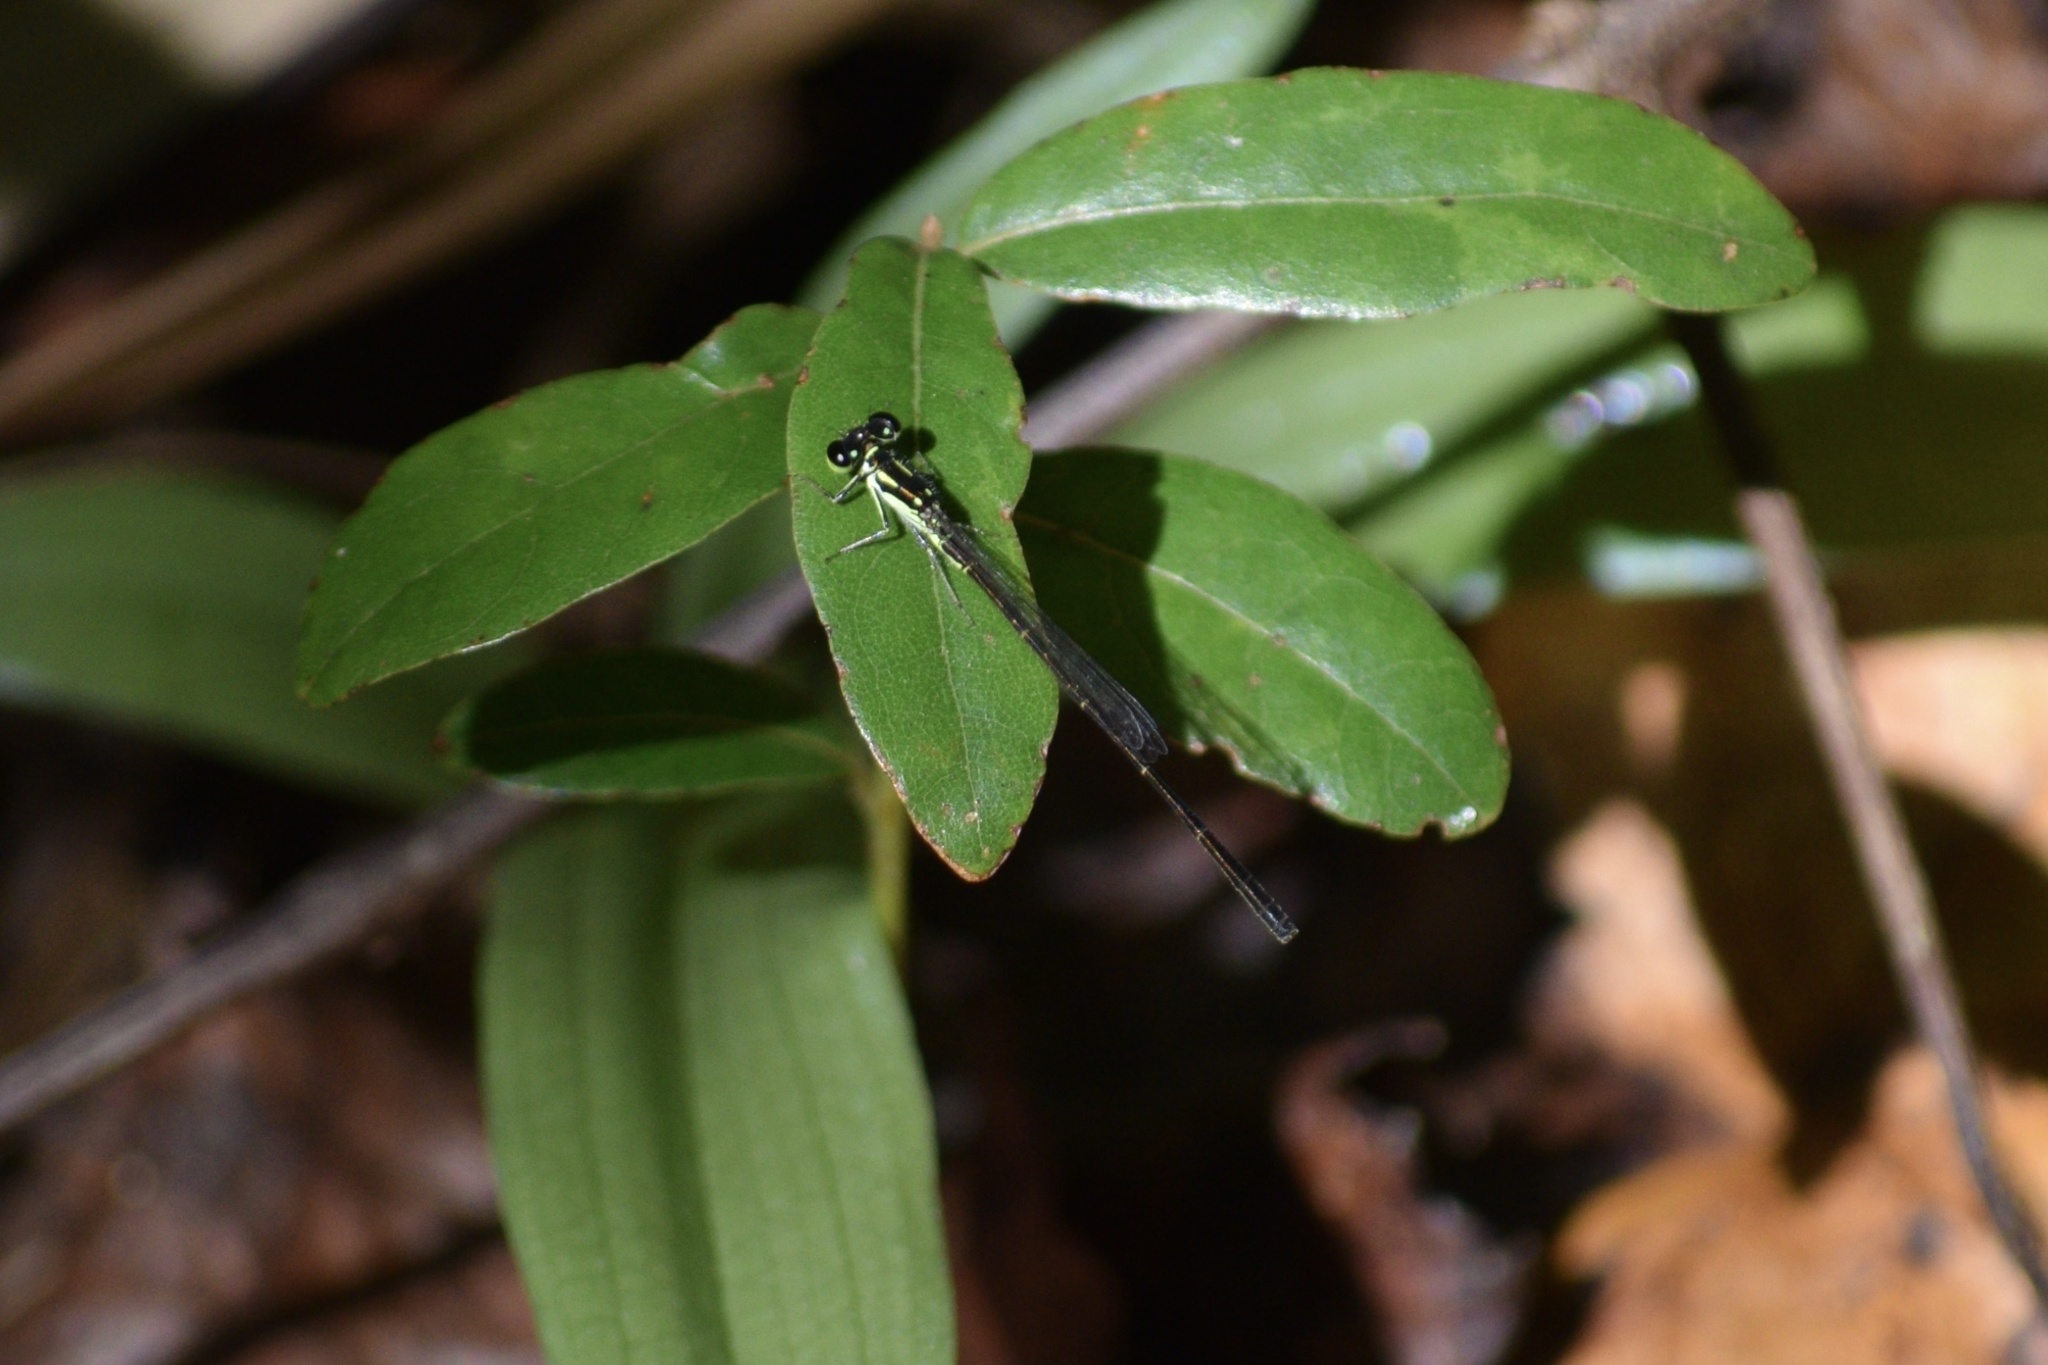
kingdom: Animalia
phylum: Arthropoda
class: Insecta
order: Odonata
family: Coenagrionidae
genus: Ischnura
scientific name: Ischnura posita
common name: Fragile forktail
